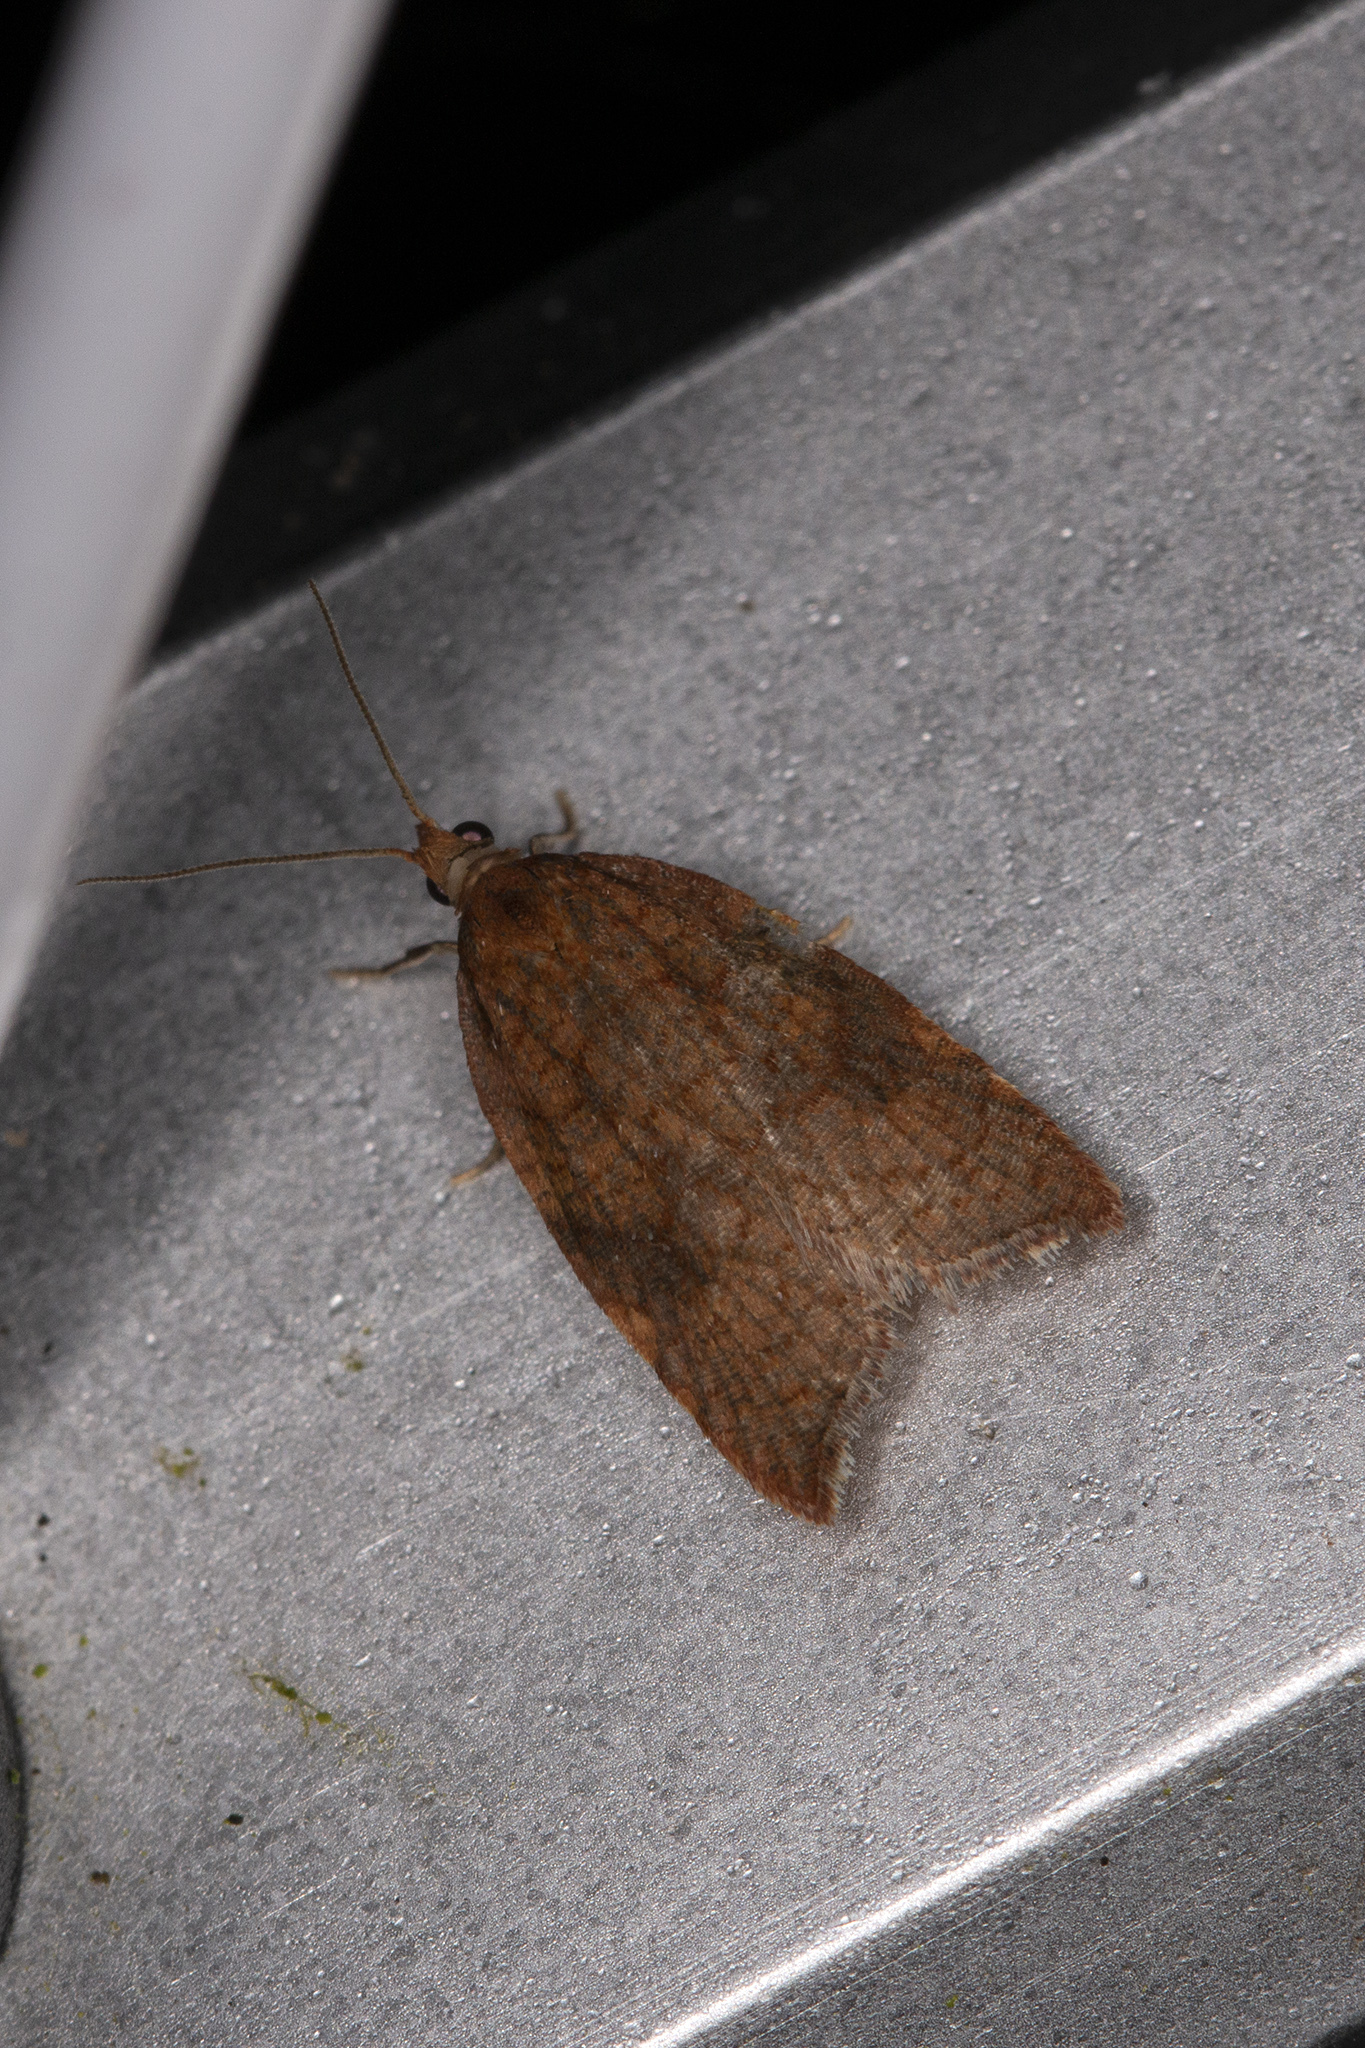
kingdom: Animalia
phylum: Arthropoda
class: Insecta
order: Lepidoptera
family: Tortricidae
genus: Acleris
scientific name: Acleris rhombana
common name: Tortricid moth
